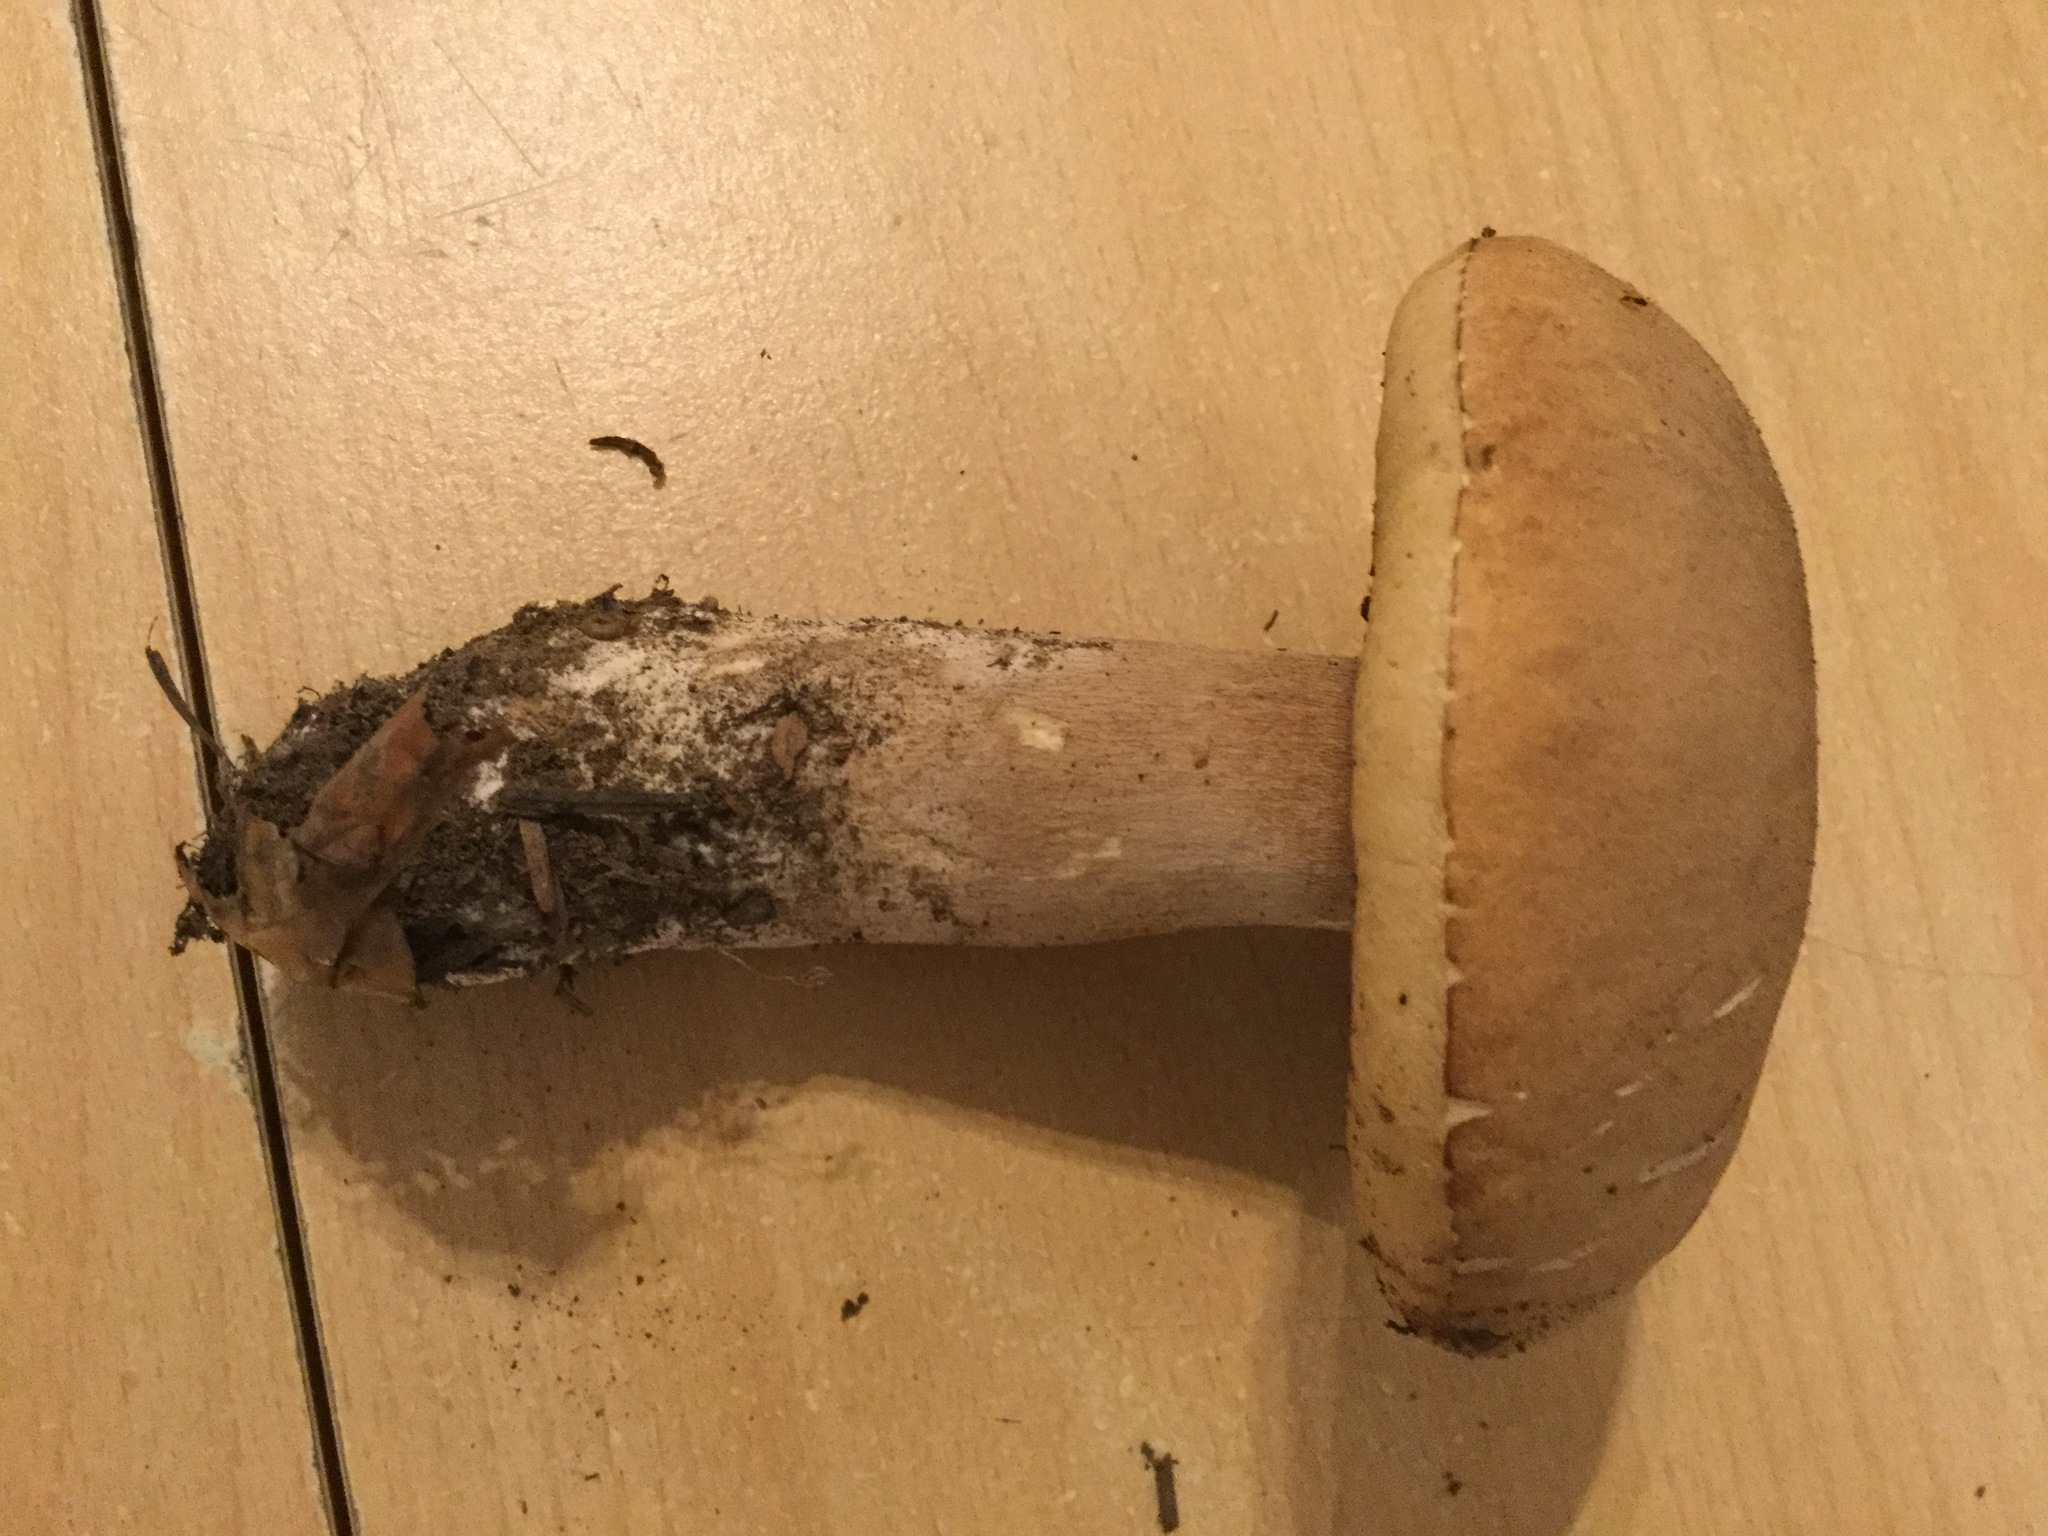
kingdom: Fungi
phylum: Basidiomycota
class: Agaricomycetes
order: Boletales
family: Boletaceae
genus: Boletus
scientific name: Boletus reticulatus
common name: Summer bolete
